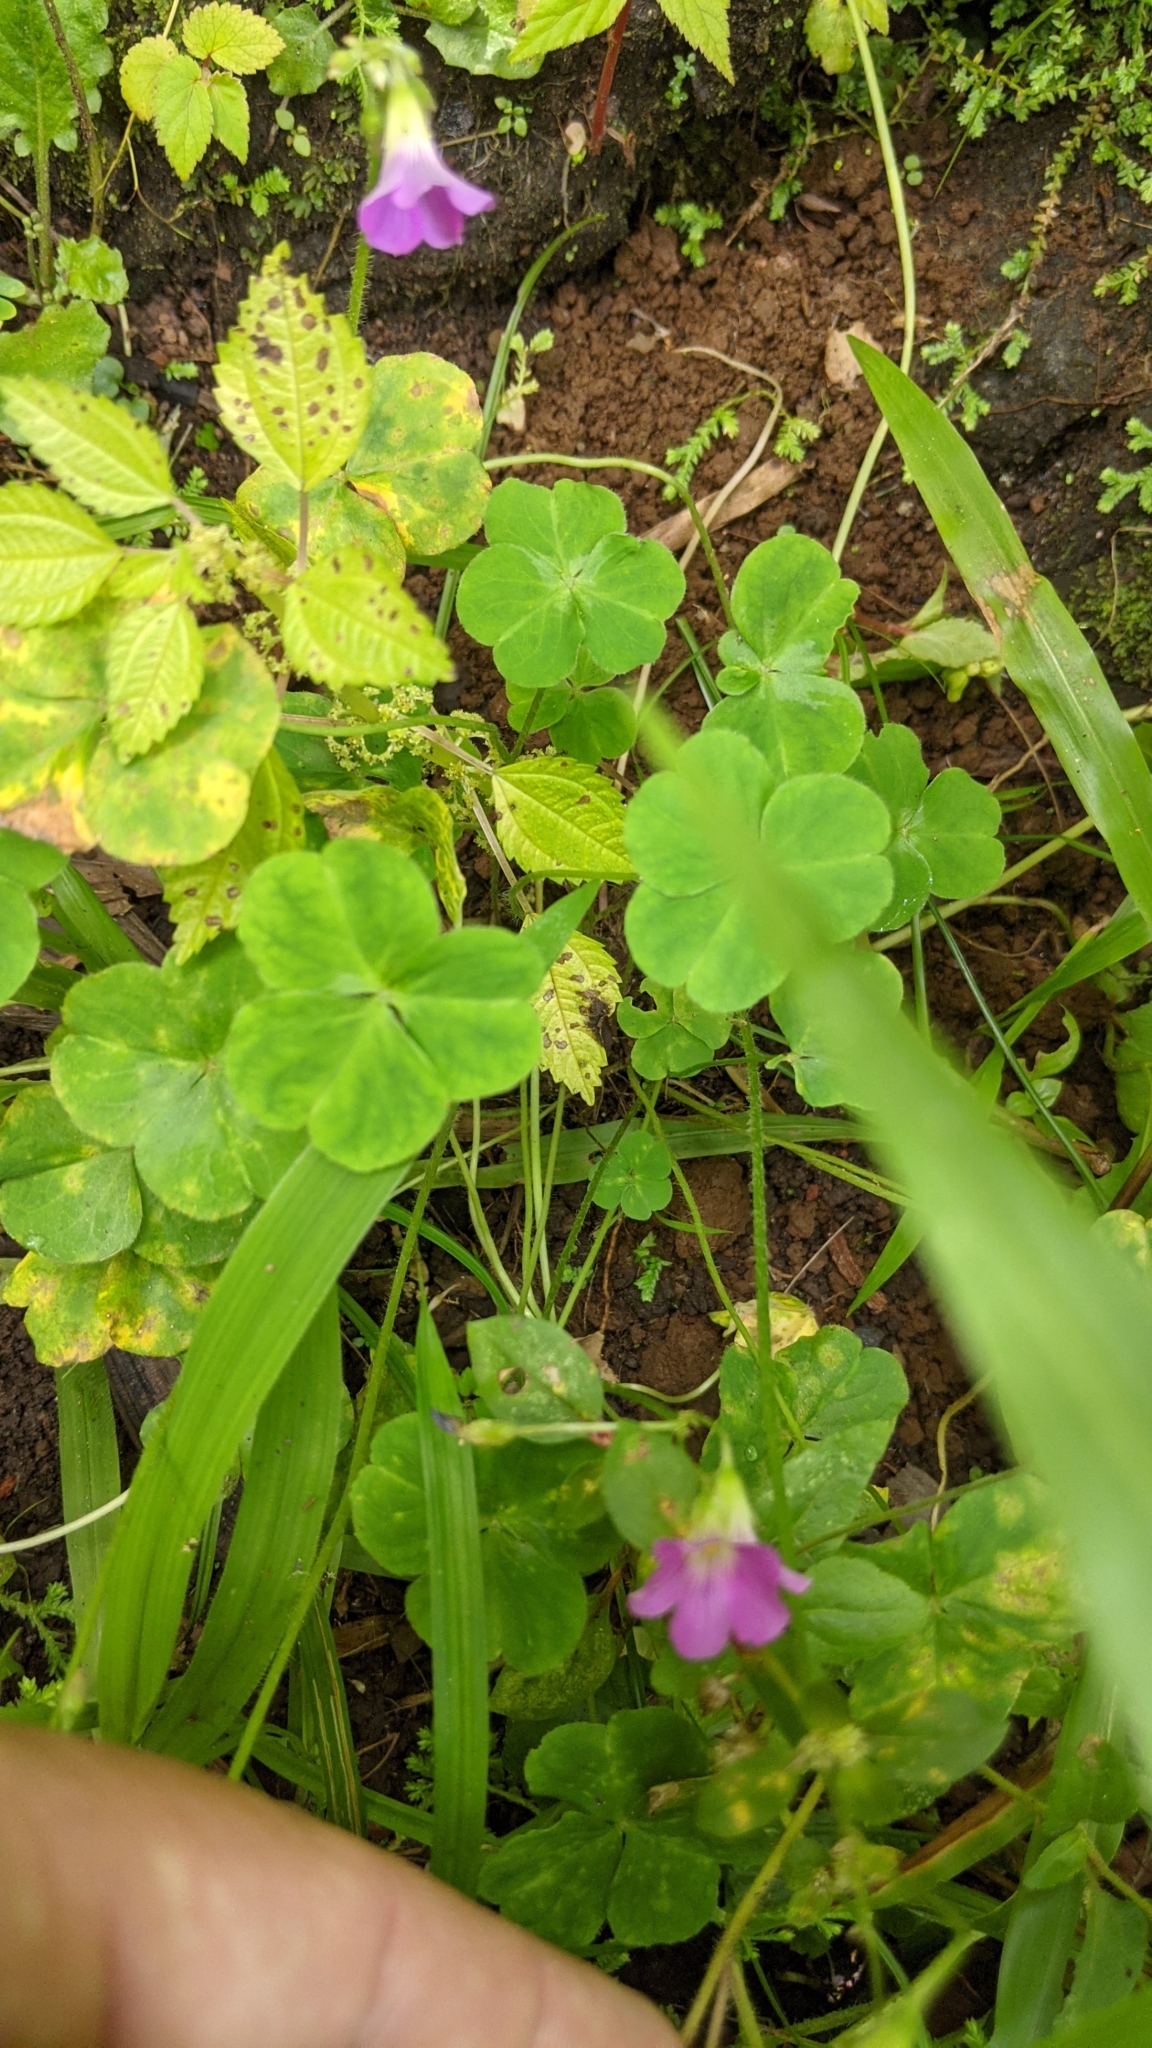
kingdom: Plantae
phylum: Tracheophyta
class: Magnoliopsida
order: Oxalidales
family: Oxalidaceae
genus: Oxalis
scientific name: Oxalis debilis
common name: Large-flowered pink-sorrel
